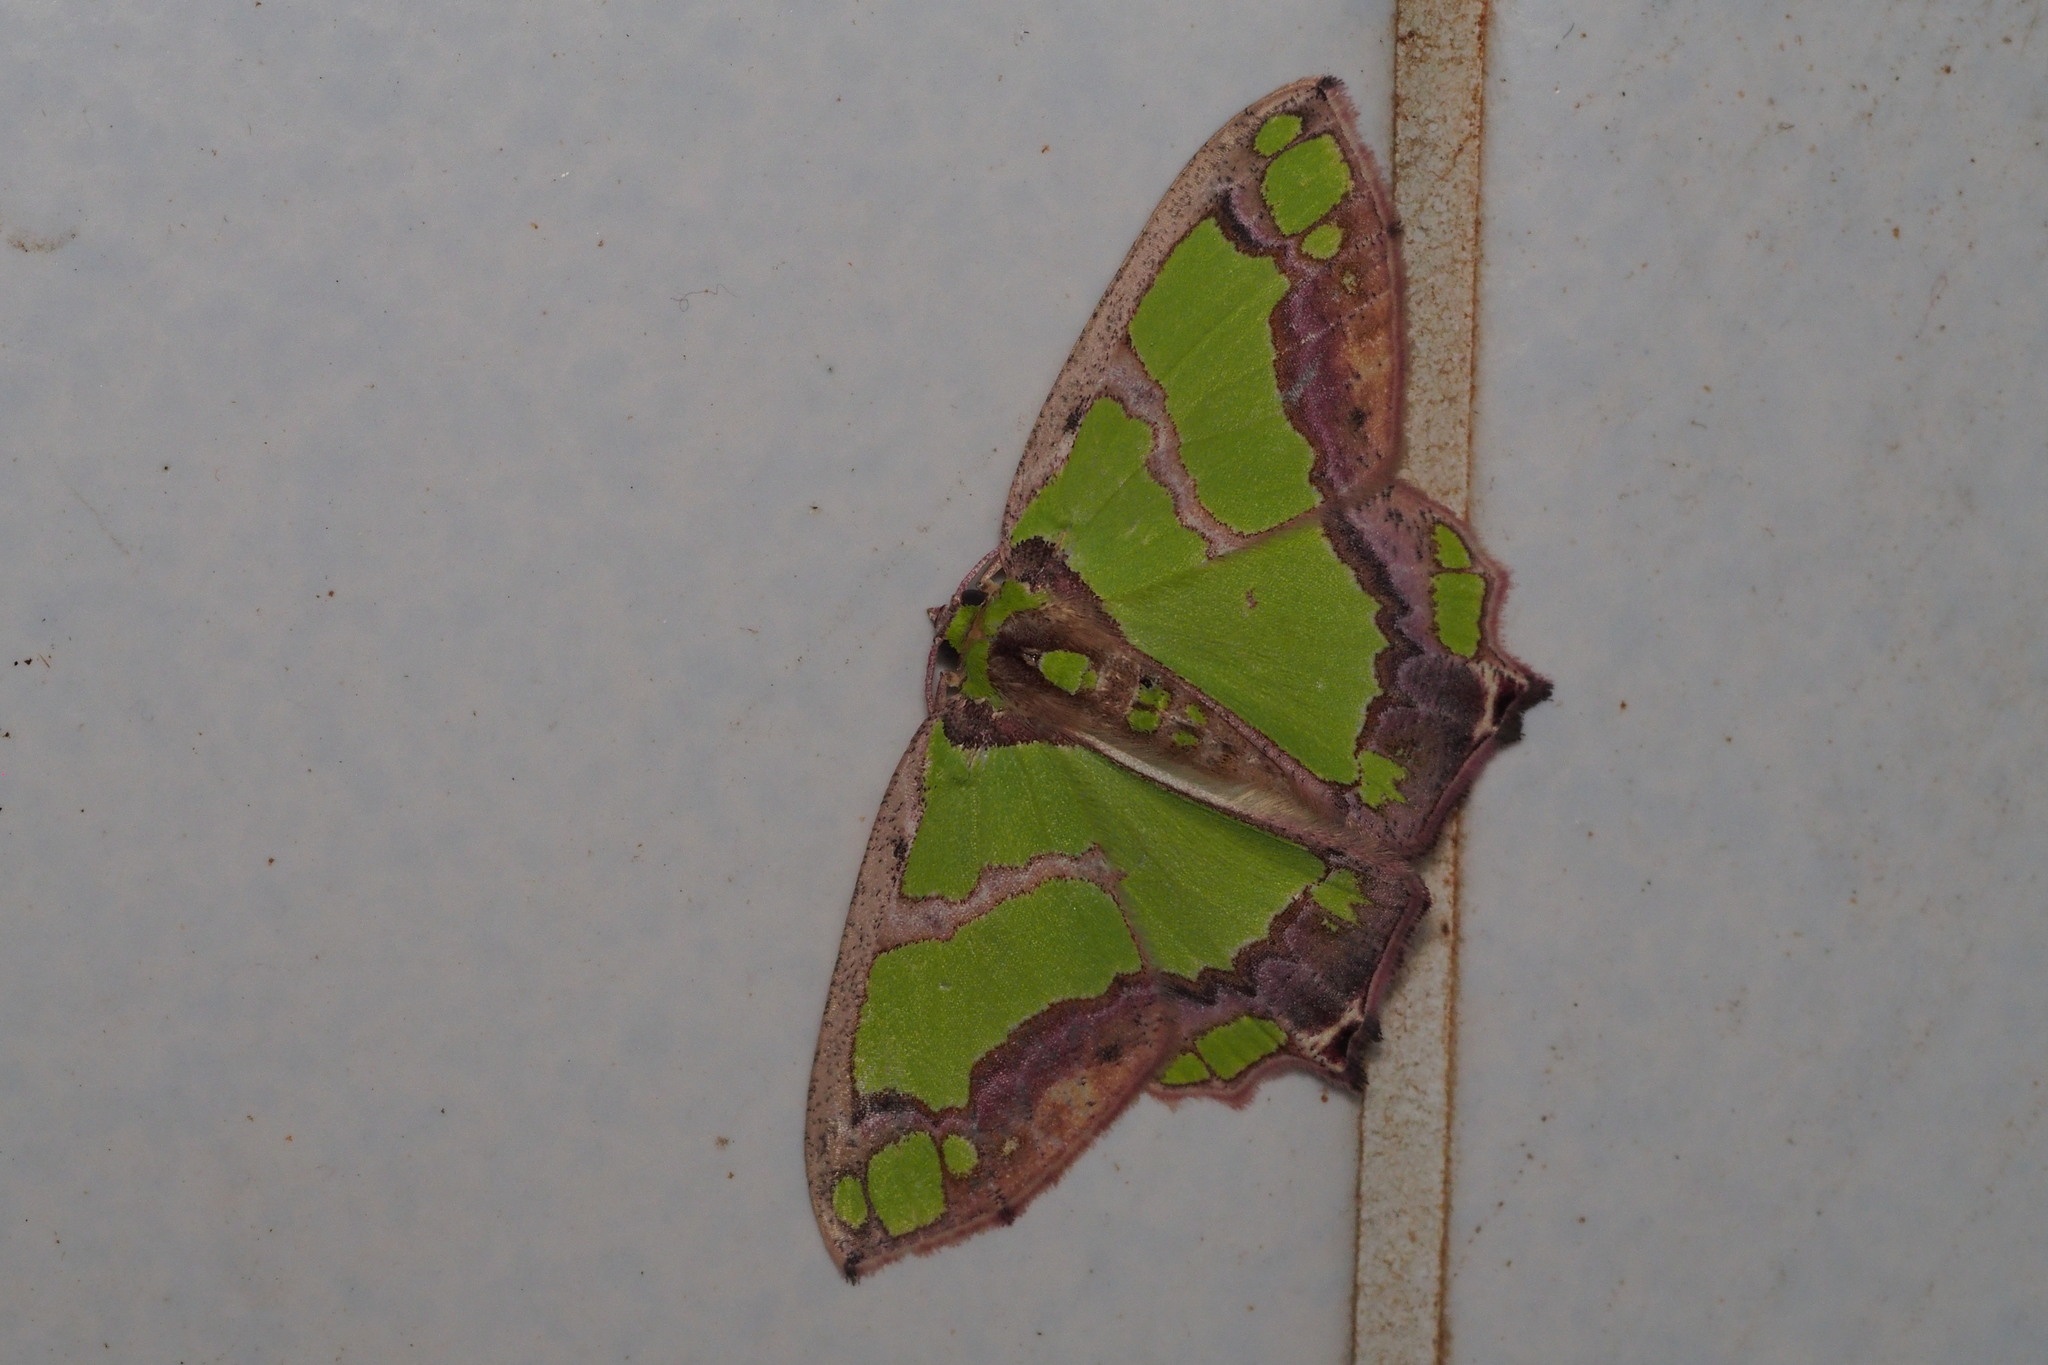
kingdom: Animalia
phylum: Arthropoda
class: Insecta
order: Lepidoptera
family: Geometridae
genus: Agathia
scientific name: Agathia visenda
